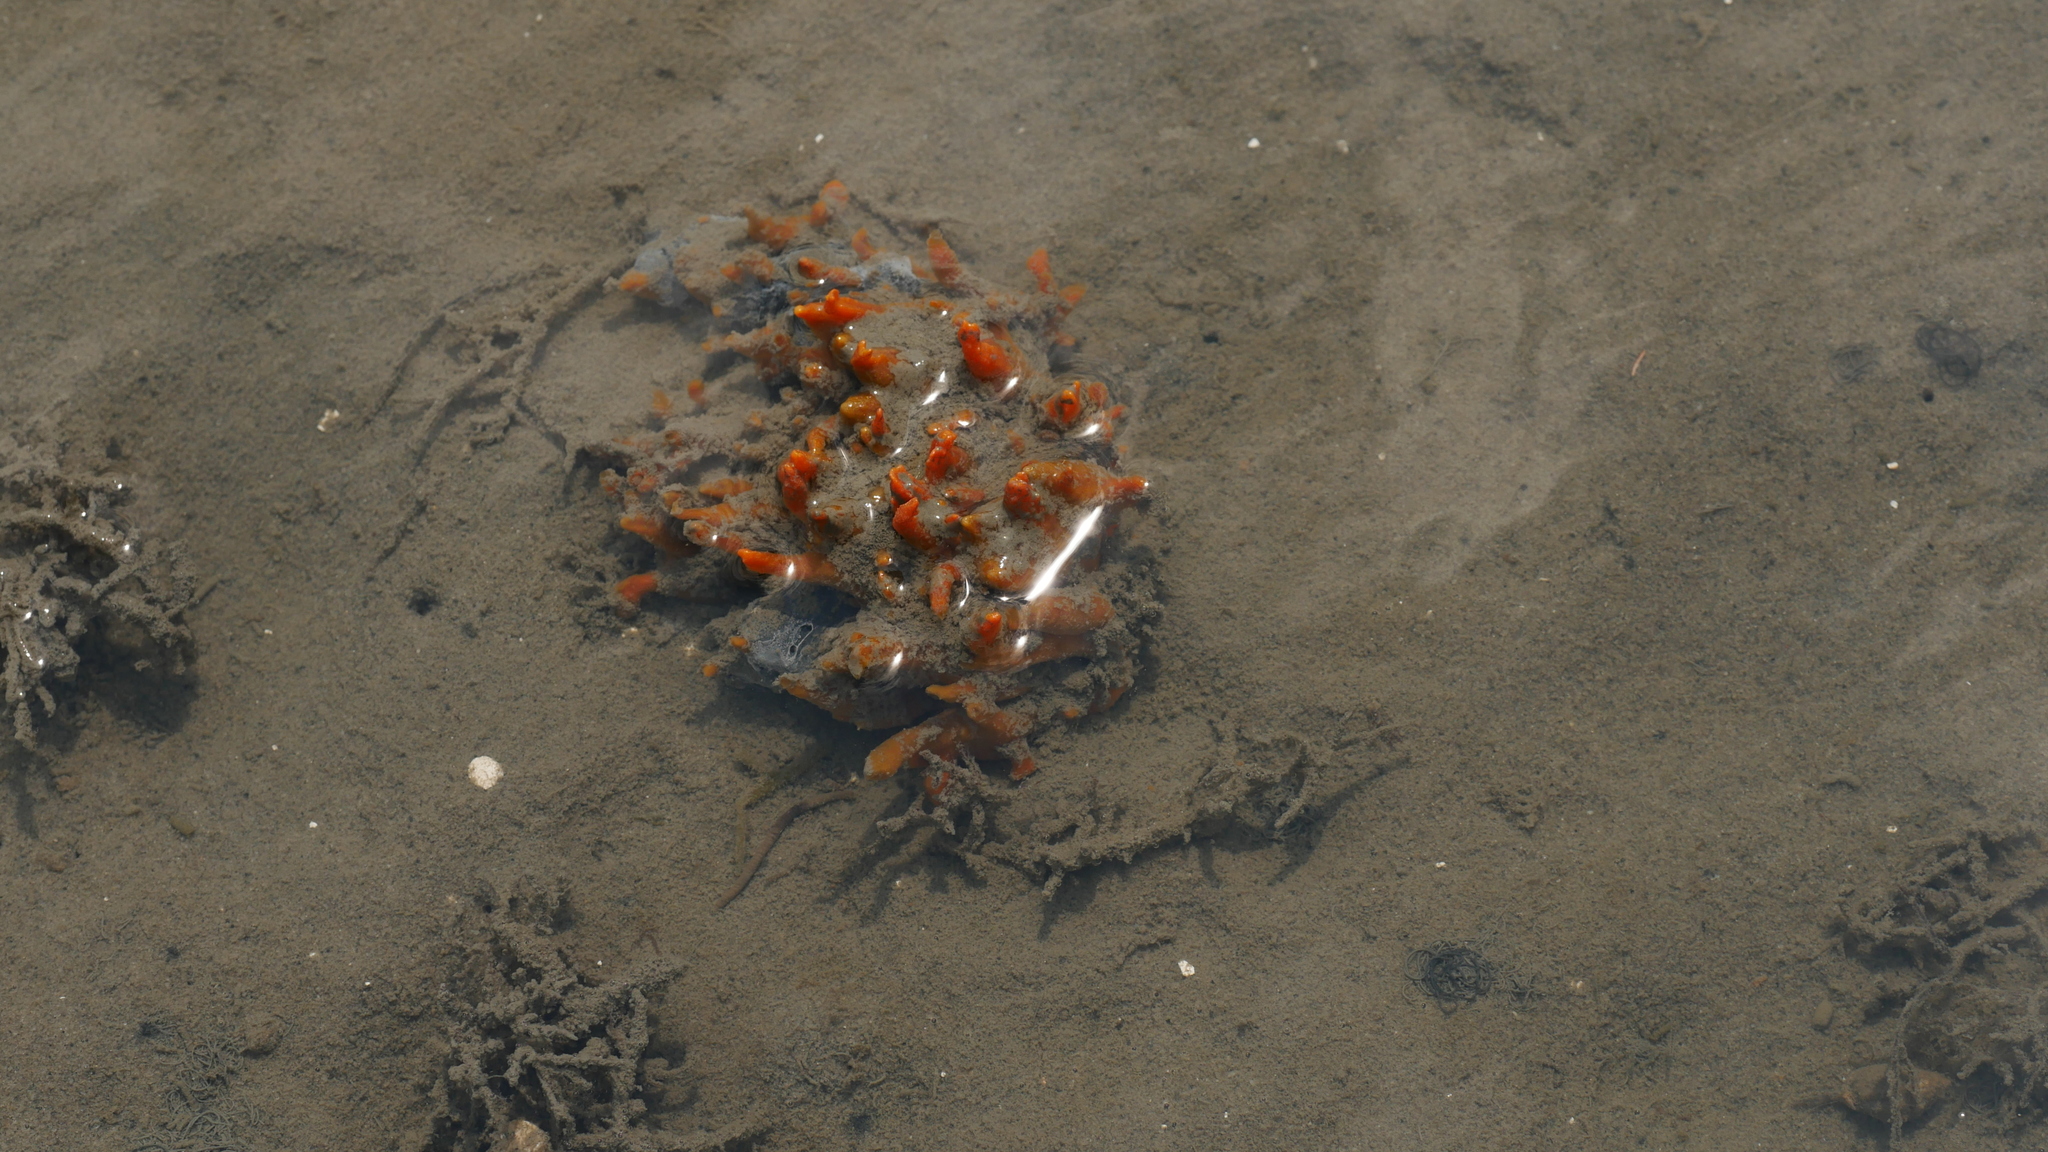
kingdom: Animalia
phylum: Porifera
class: Demospongiae
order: Suberitida
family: Halichondriidae
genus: Hymeniacidon
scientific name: Hymeniacidon heliophila
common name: Diurnal horny sponge
